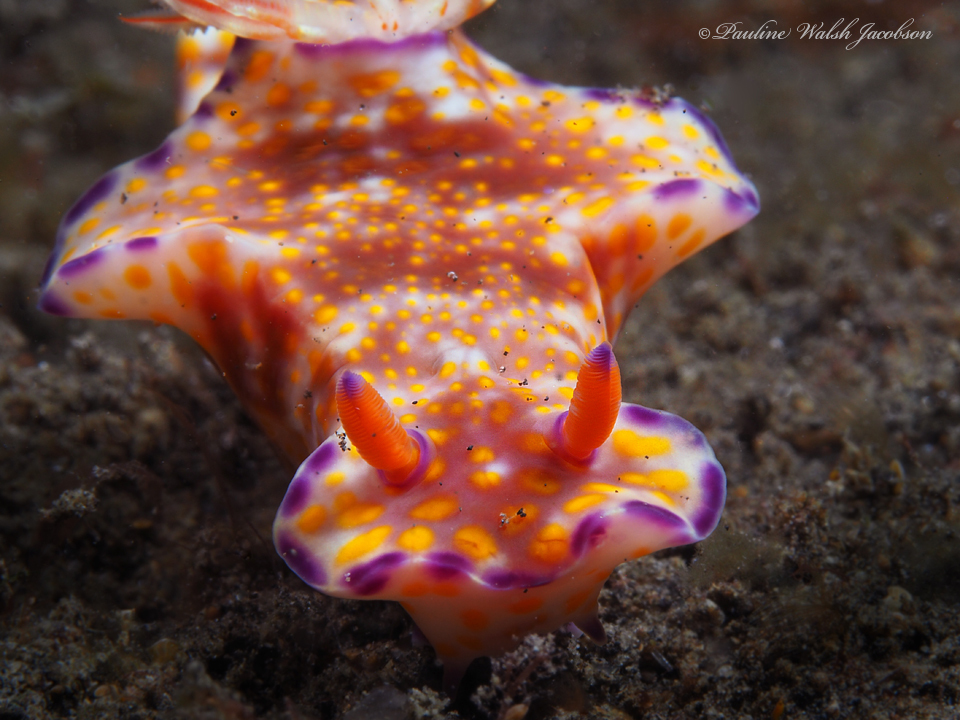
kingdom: Animalia
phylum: Mollusca
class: Gastropoda
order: Nudibranchia
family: Chromodorididae
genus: Ceratosoma
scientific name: Ceratosoma gracillimum
